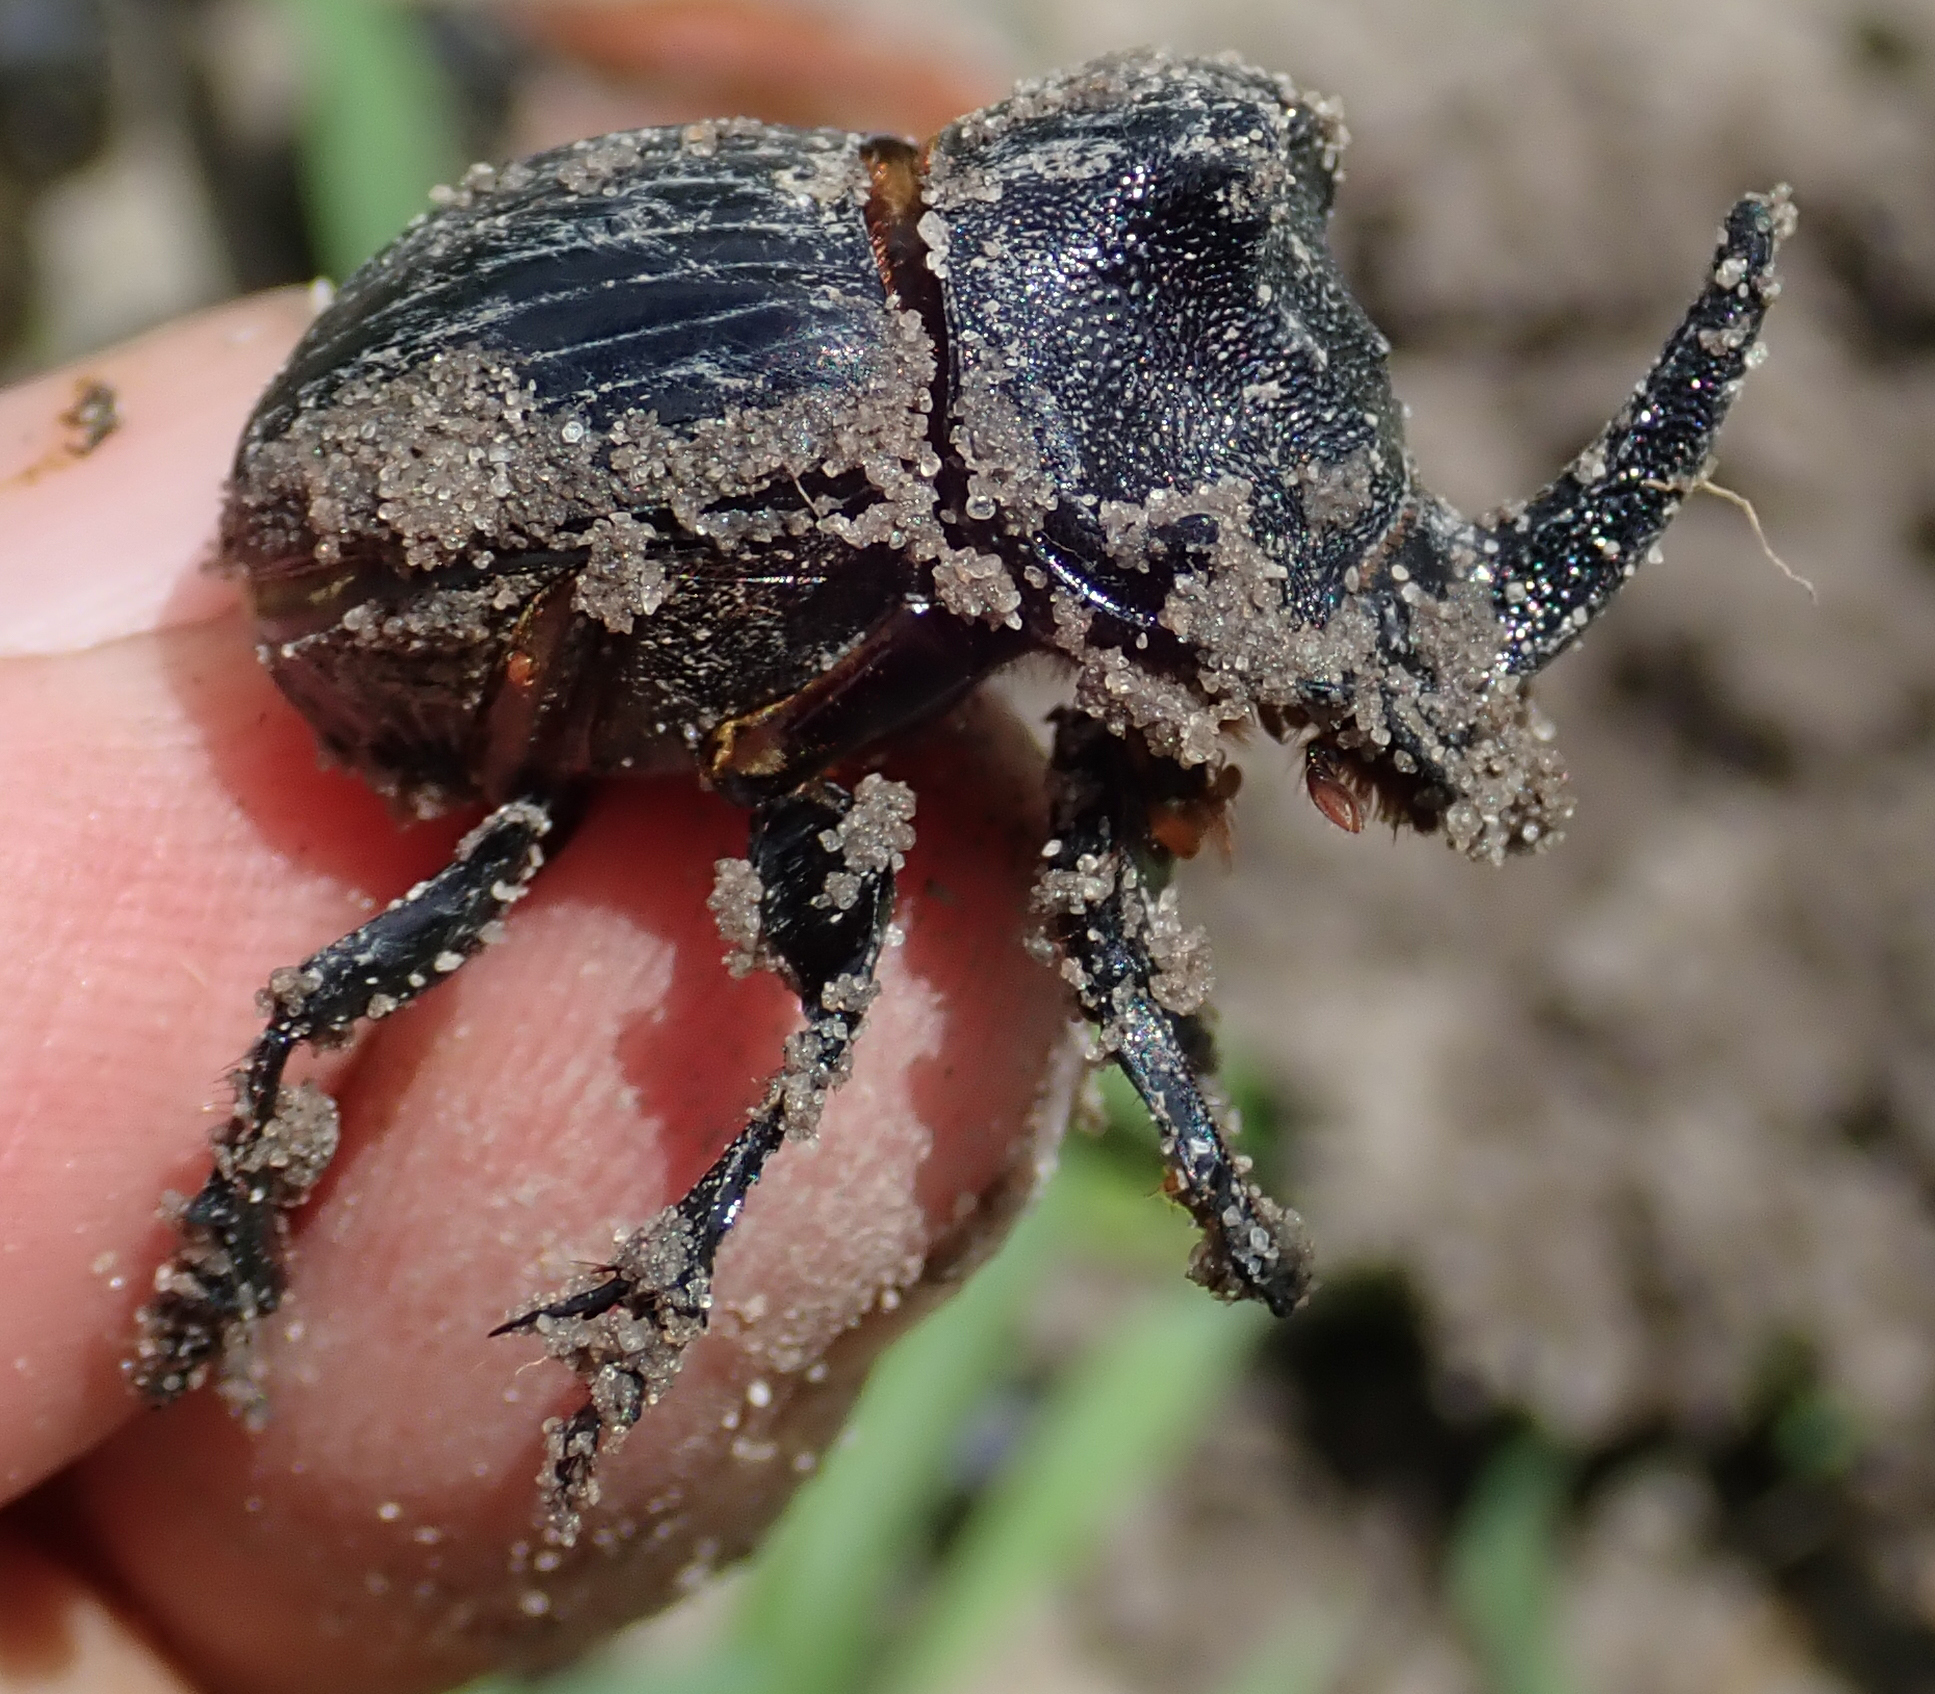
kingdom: Animalia
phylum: Arthropoda
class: Insecta
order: Coleoptera
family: Scarabaeidae
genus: Copris
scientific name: Copris elphenor
